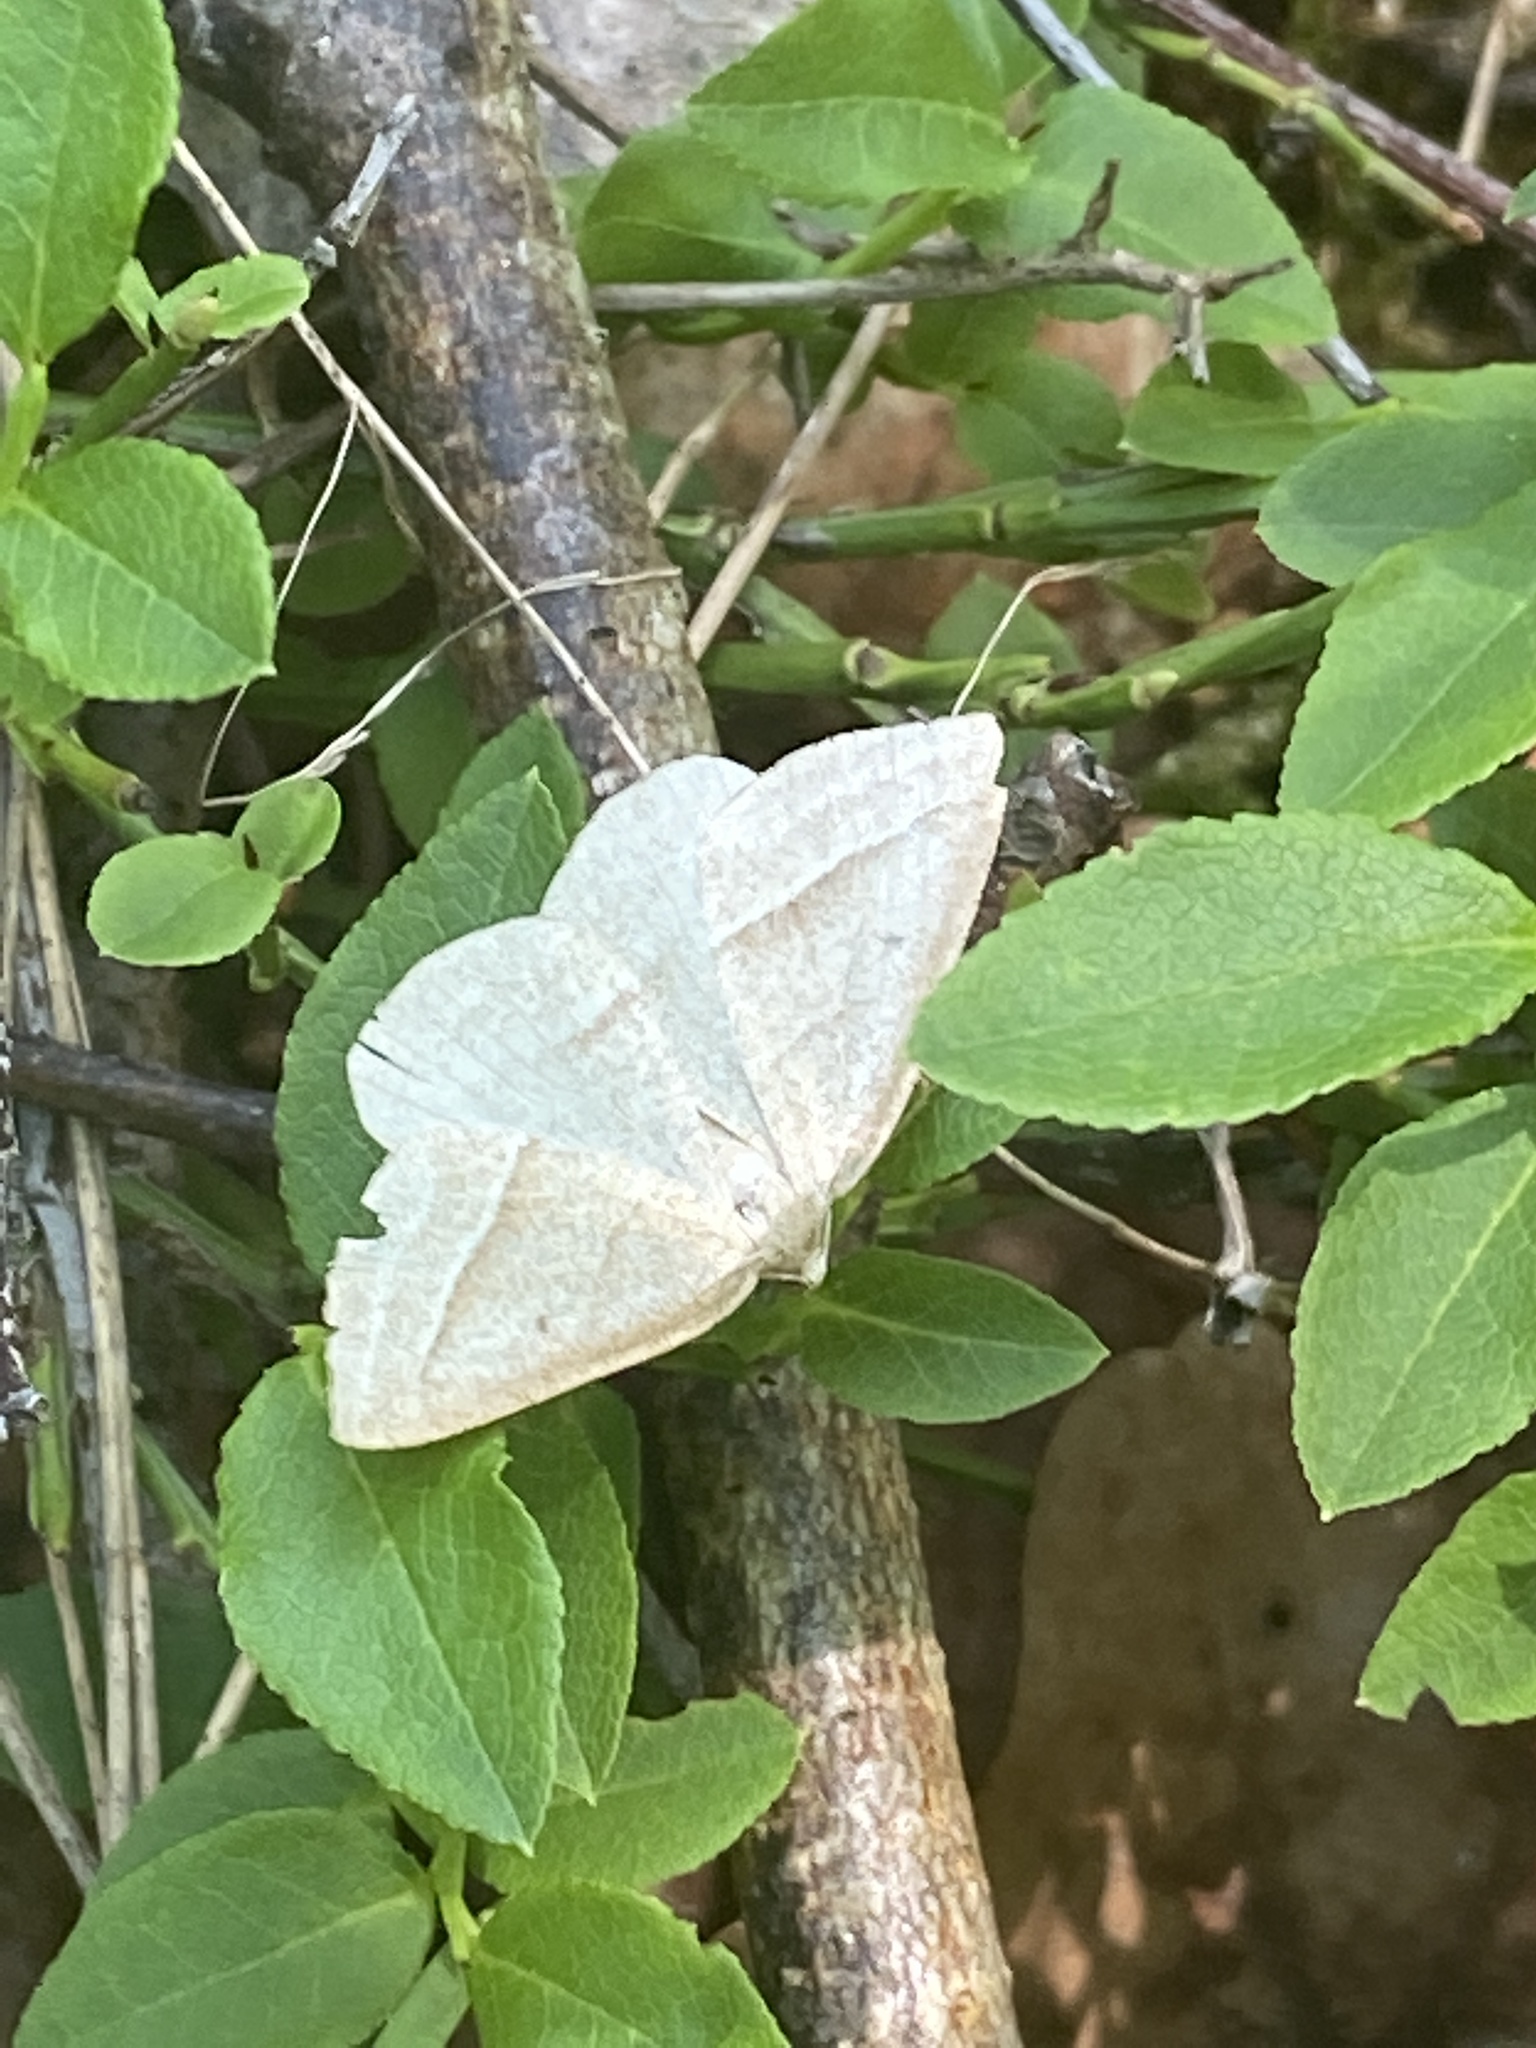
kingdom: Animalia
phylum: Arthropoda
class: Insecta
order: Lepidoptera
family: Pterophoridae
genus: Pterophorus
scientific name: Pterophorus Petrophora chlorosata
